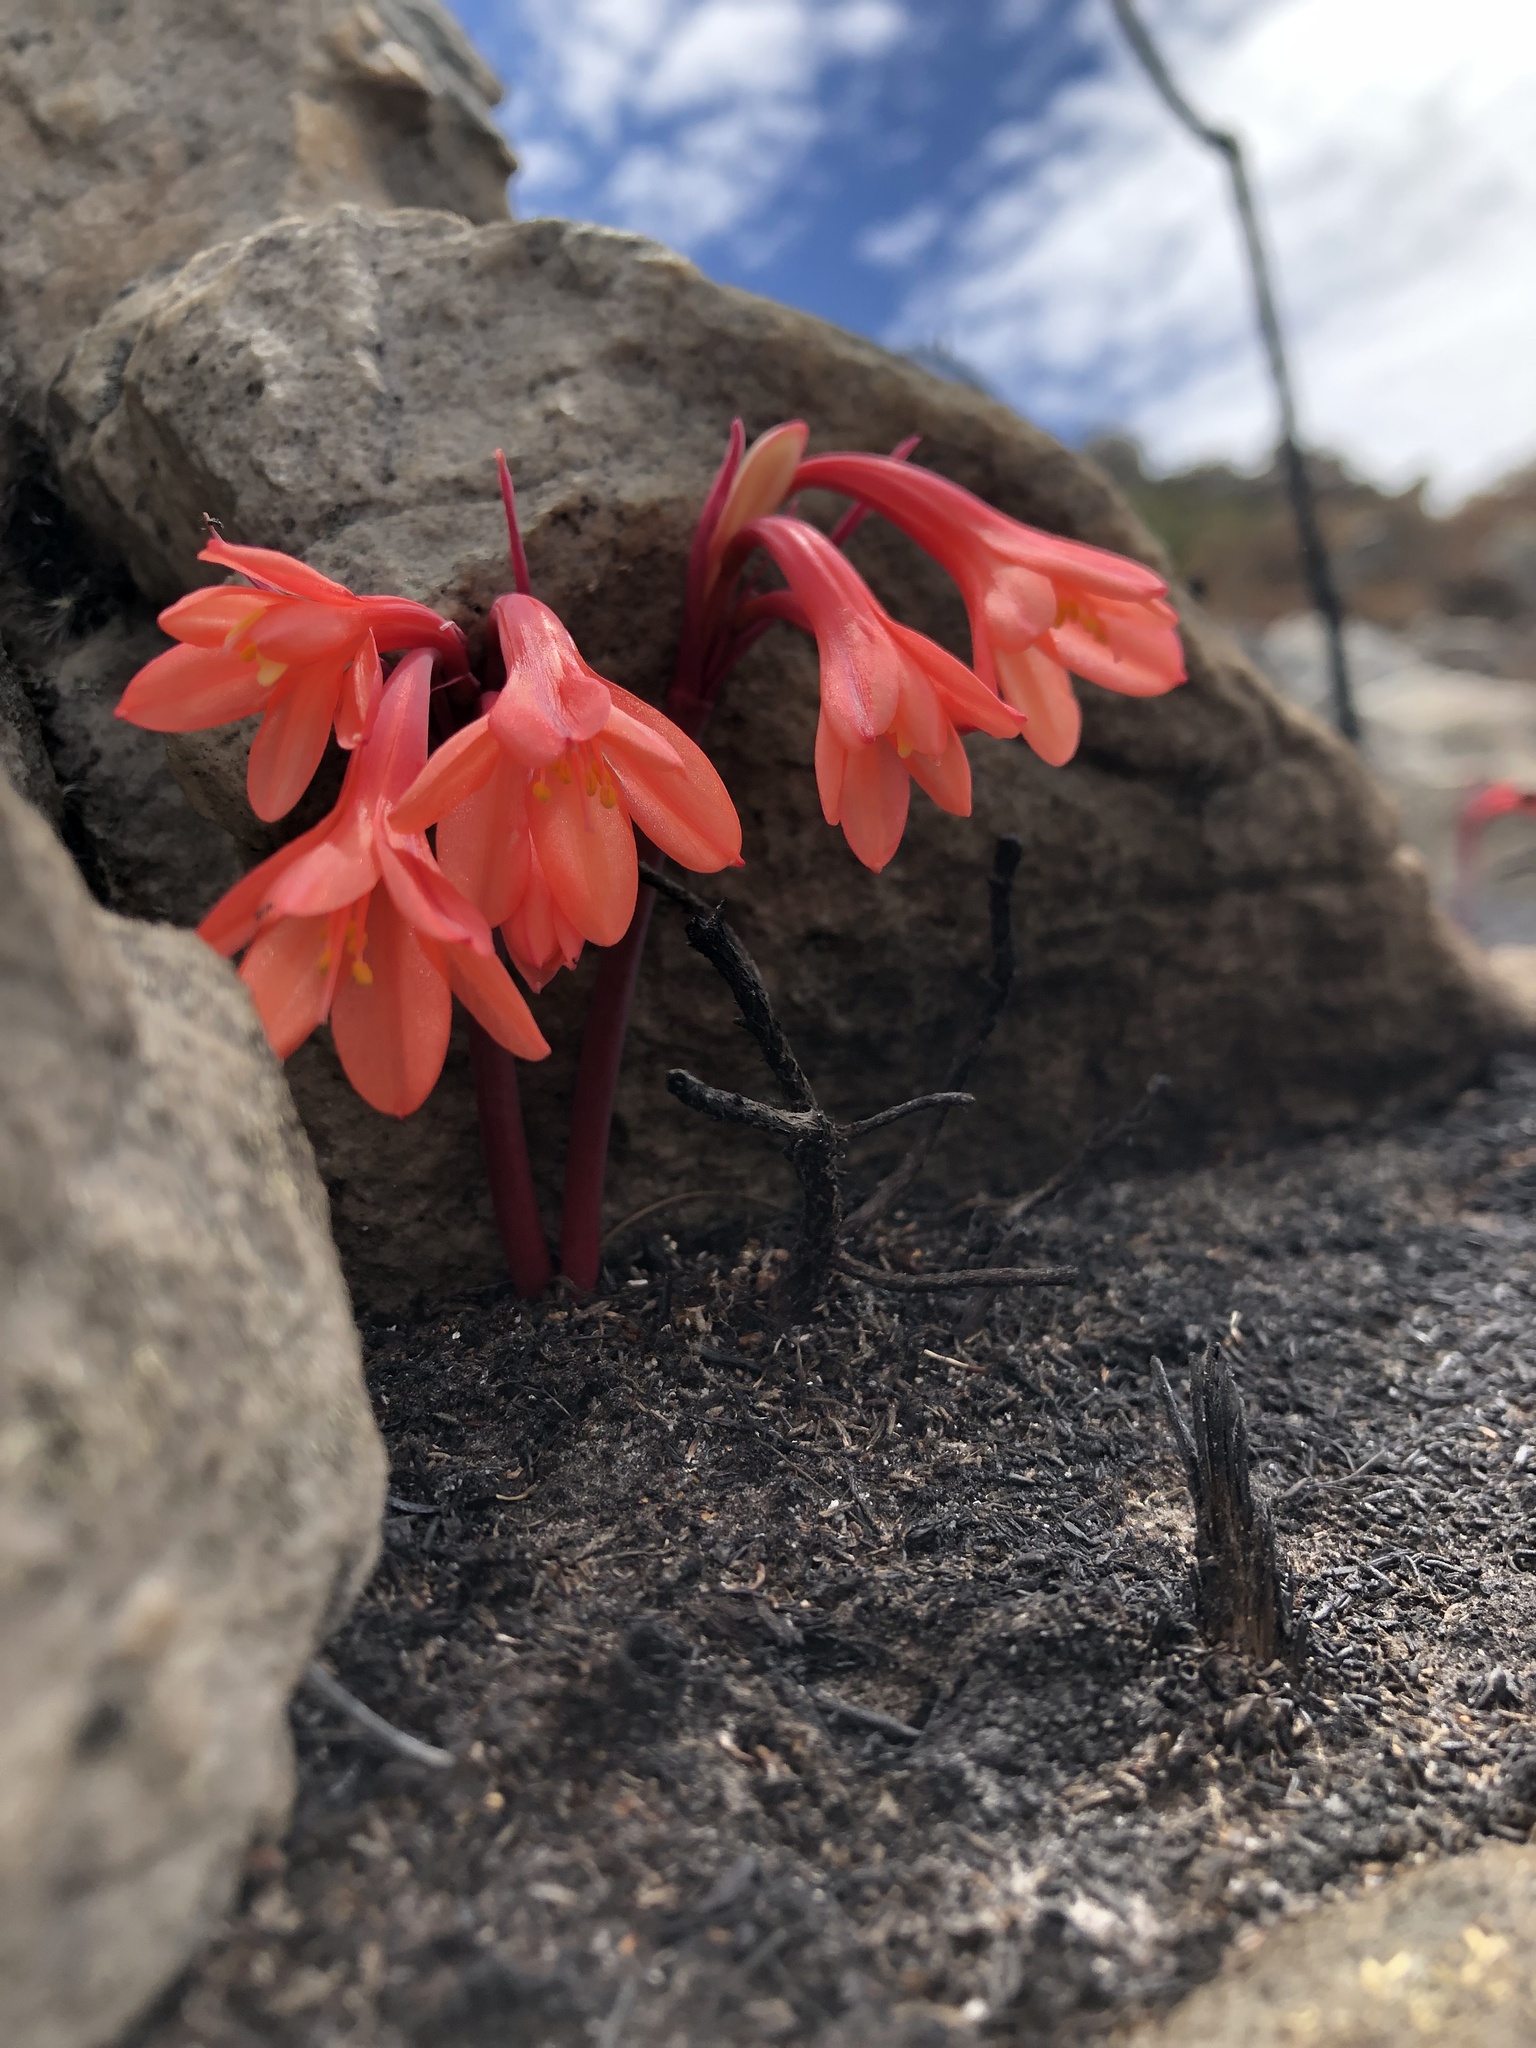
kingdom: Plantae
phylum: Tracheophyta
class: Liliopsida
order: Asparagales
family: Amaryllidaceae
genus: Cyrtanthus
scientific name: Cyrtanthus ventricosus
